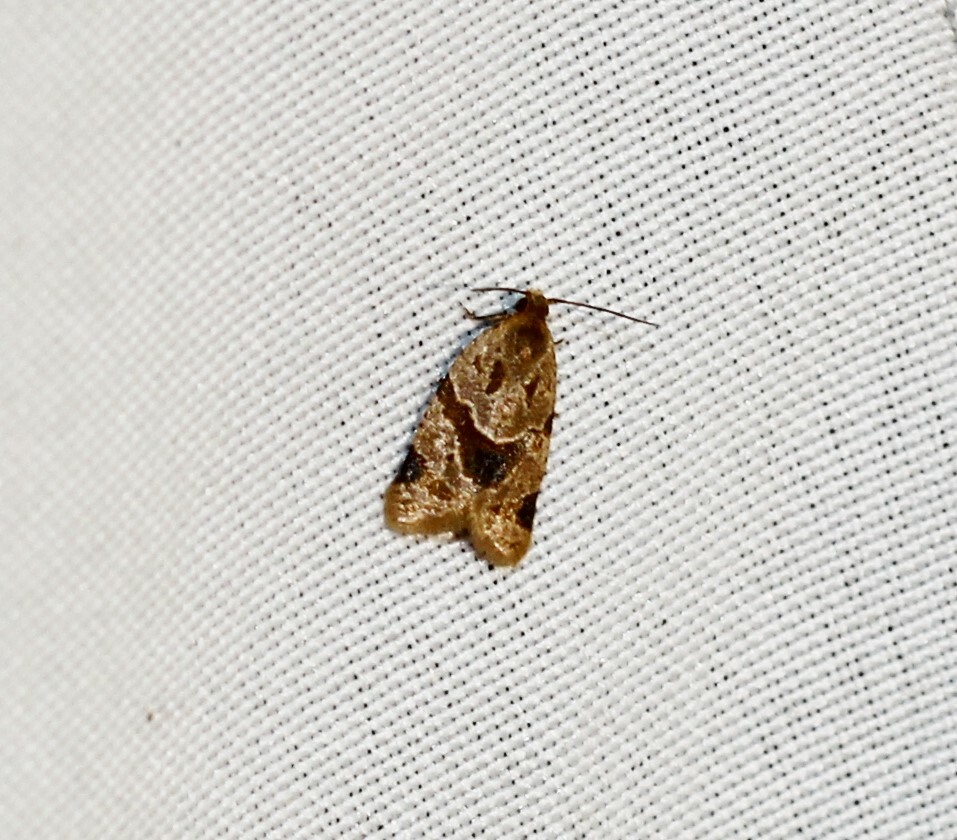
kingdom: Animalia
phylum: Arthropoda
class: Insecta
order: Lepidoptera
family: Tortricidae
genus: Clepsis
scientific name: Clepsis peritana
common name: Garden tortrix
